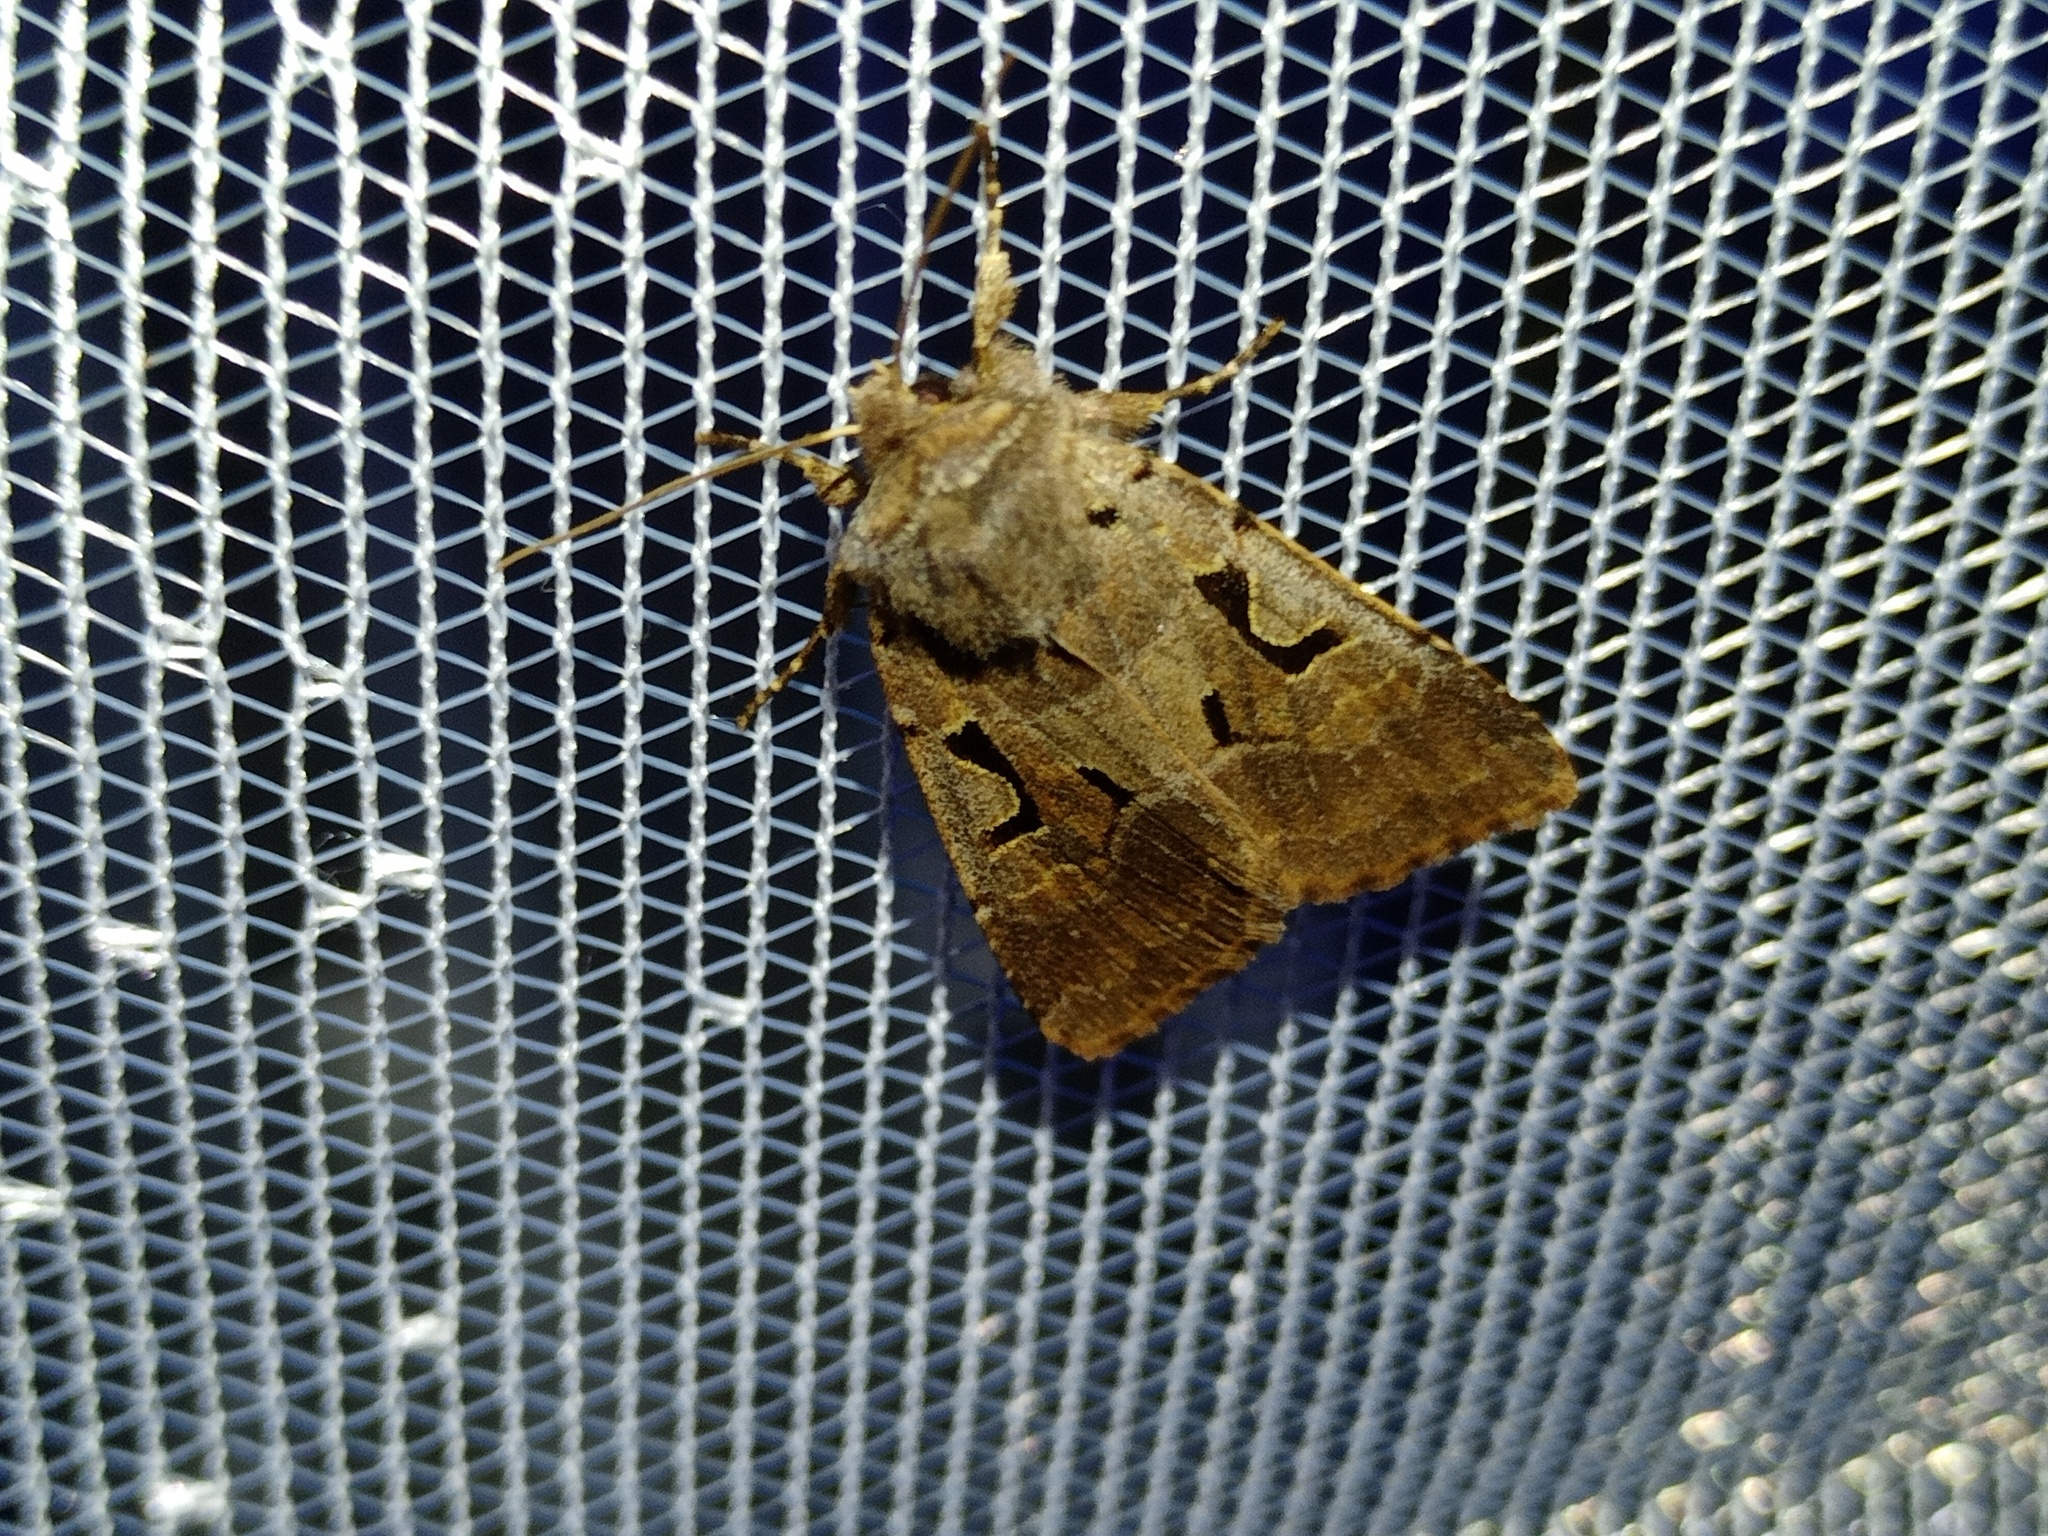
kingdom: Animalia
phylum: Arthropoda
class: Insecta
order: Lepidoptera
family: Noctuidae
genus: Orthosia
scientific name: Orthosia gothica
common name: Hebrew character
